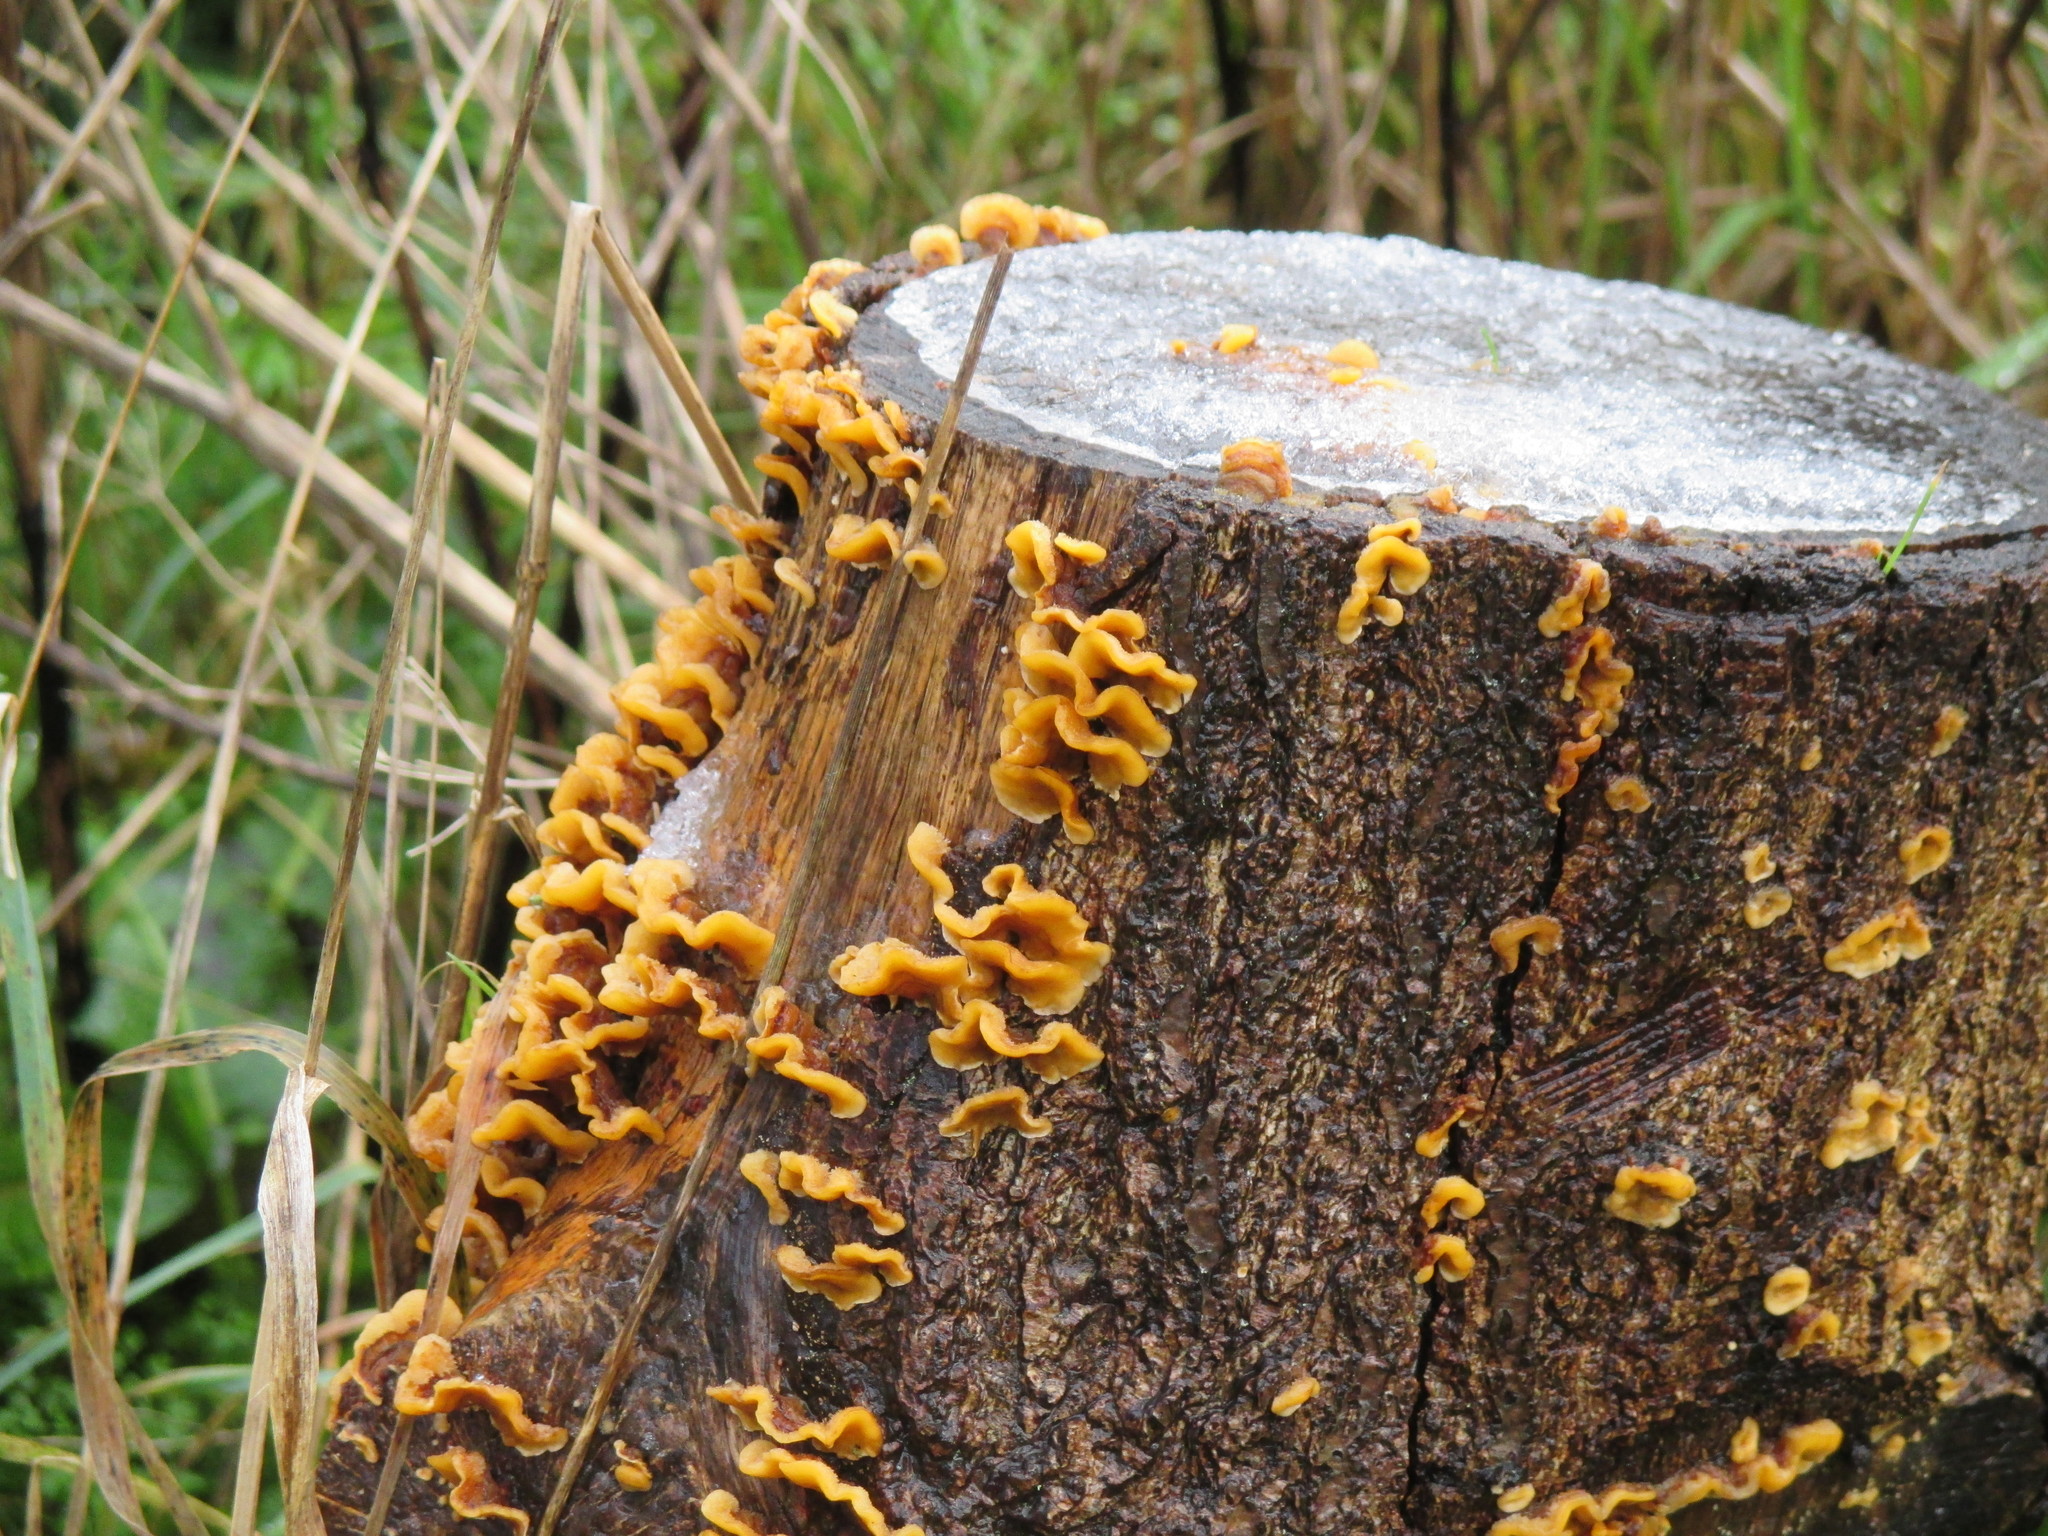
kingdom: Fungi
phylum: Basidiomycota
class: Agaricomycetes
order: Russulales
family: Stereaceae
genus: Stereum
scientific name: Stereum hirsutum
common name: Hairy curtain crust
